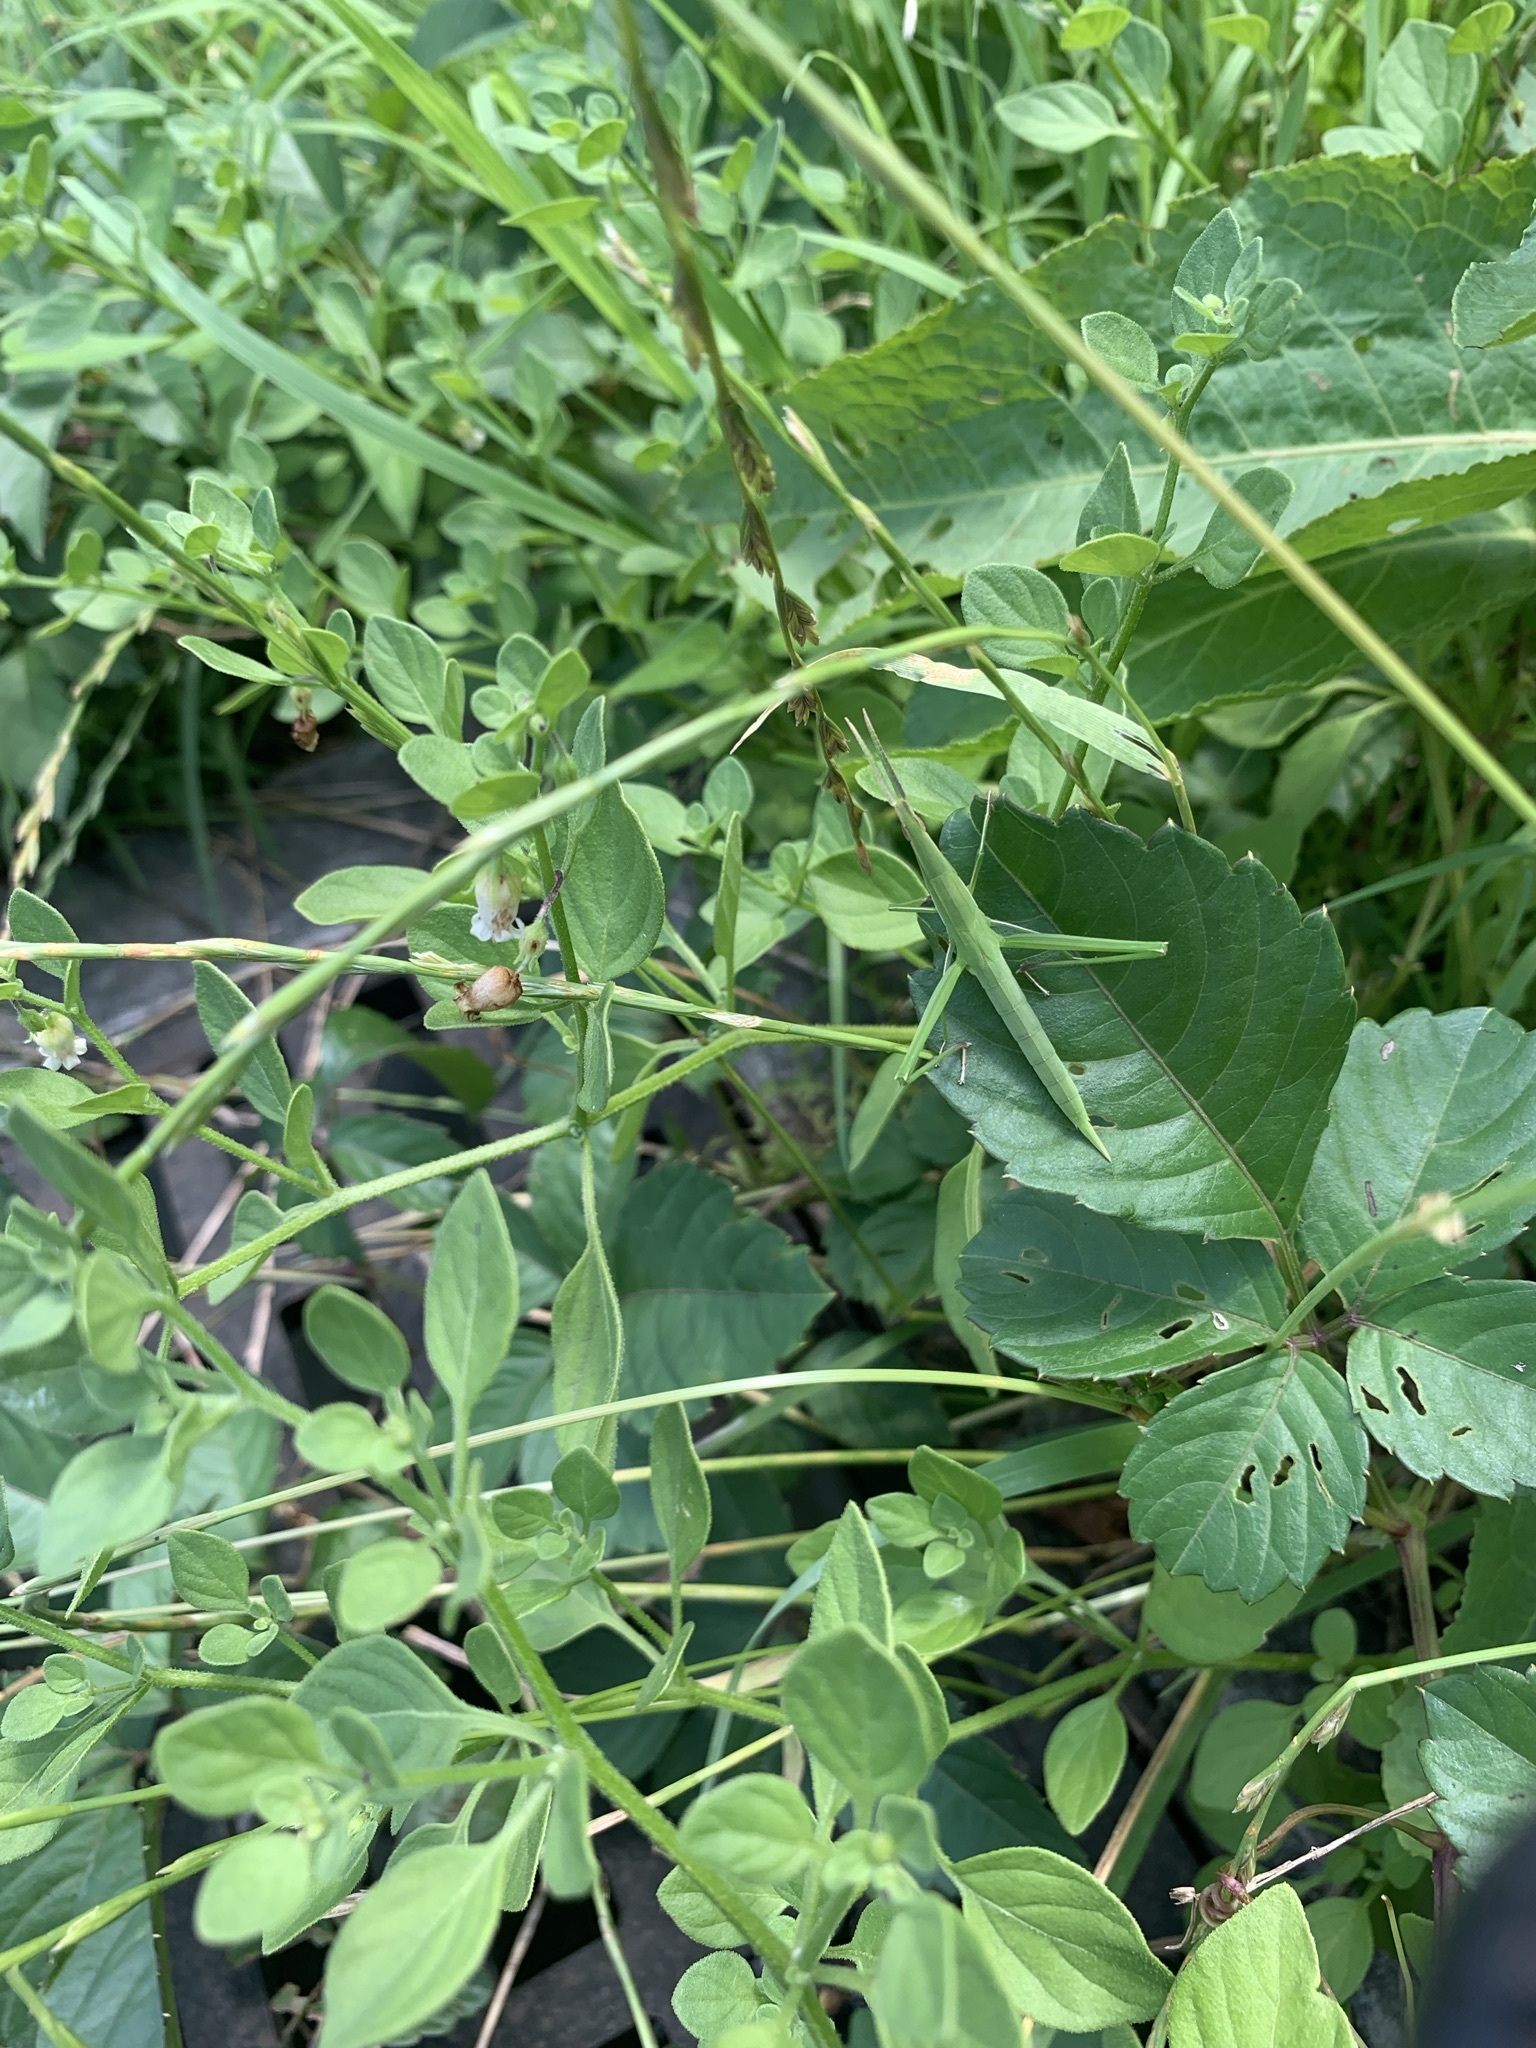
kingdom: Animalia
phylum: Arthropoda
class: Insecta
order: Orthoptera
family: Acrididae
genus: Acrida
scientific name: Acrida cinerea
